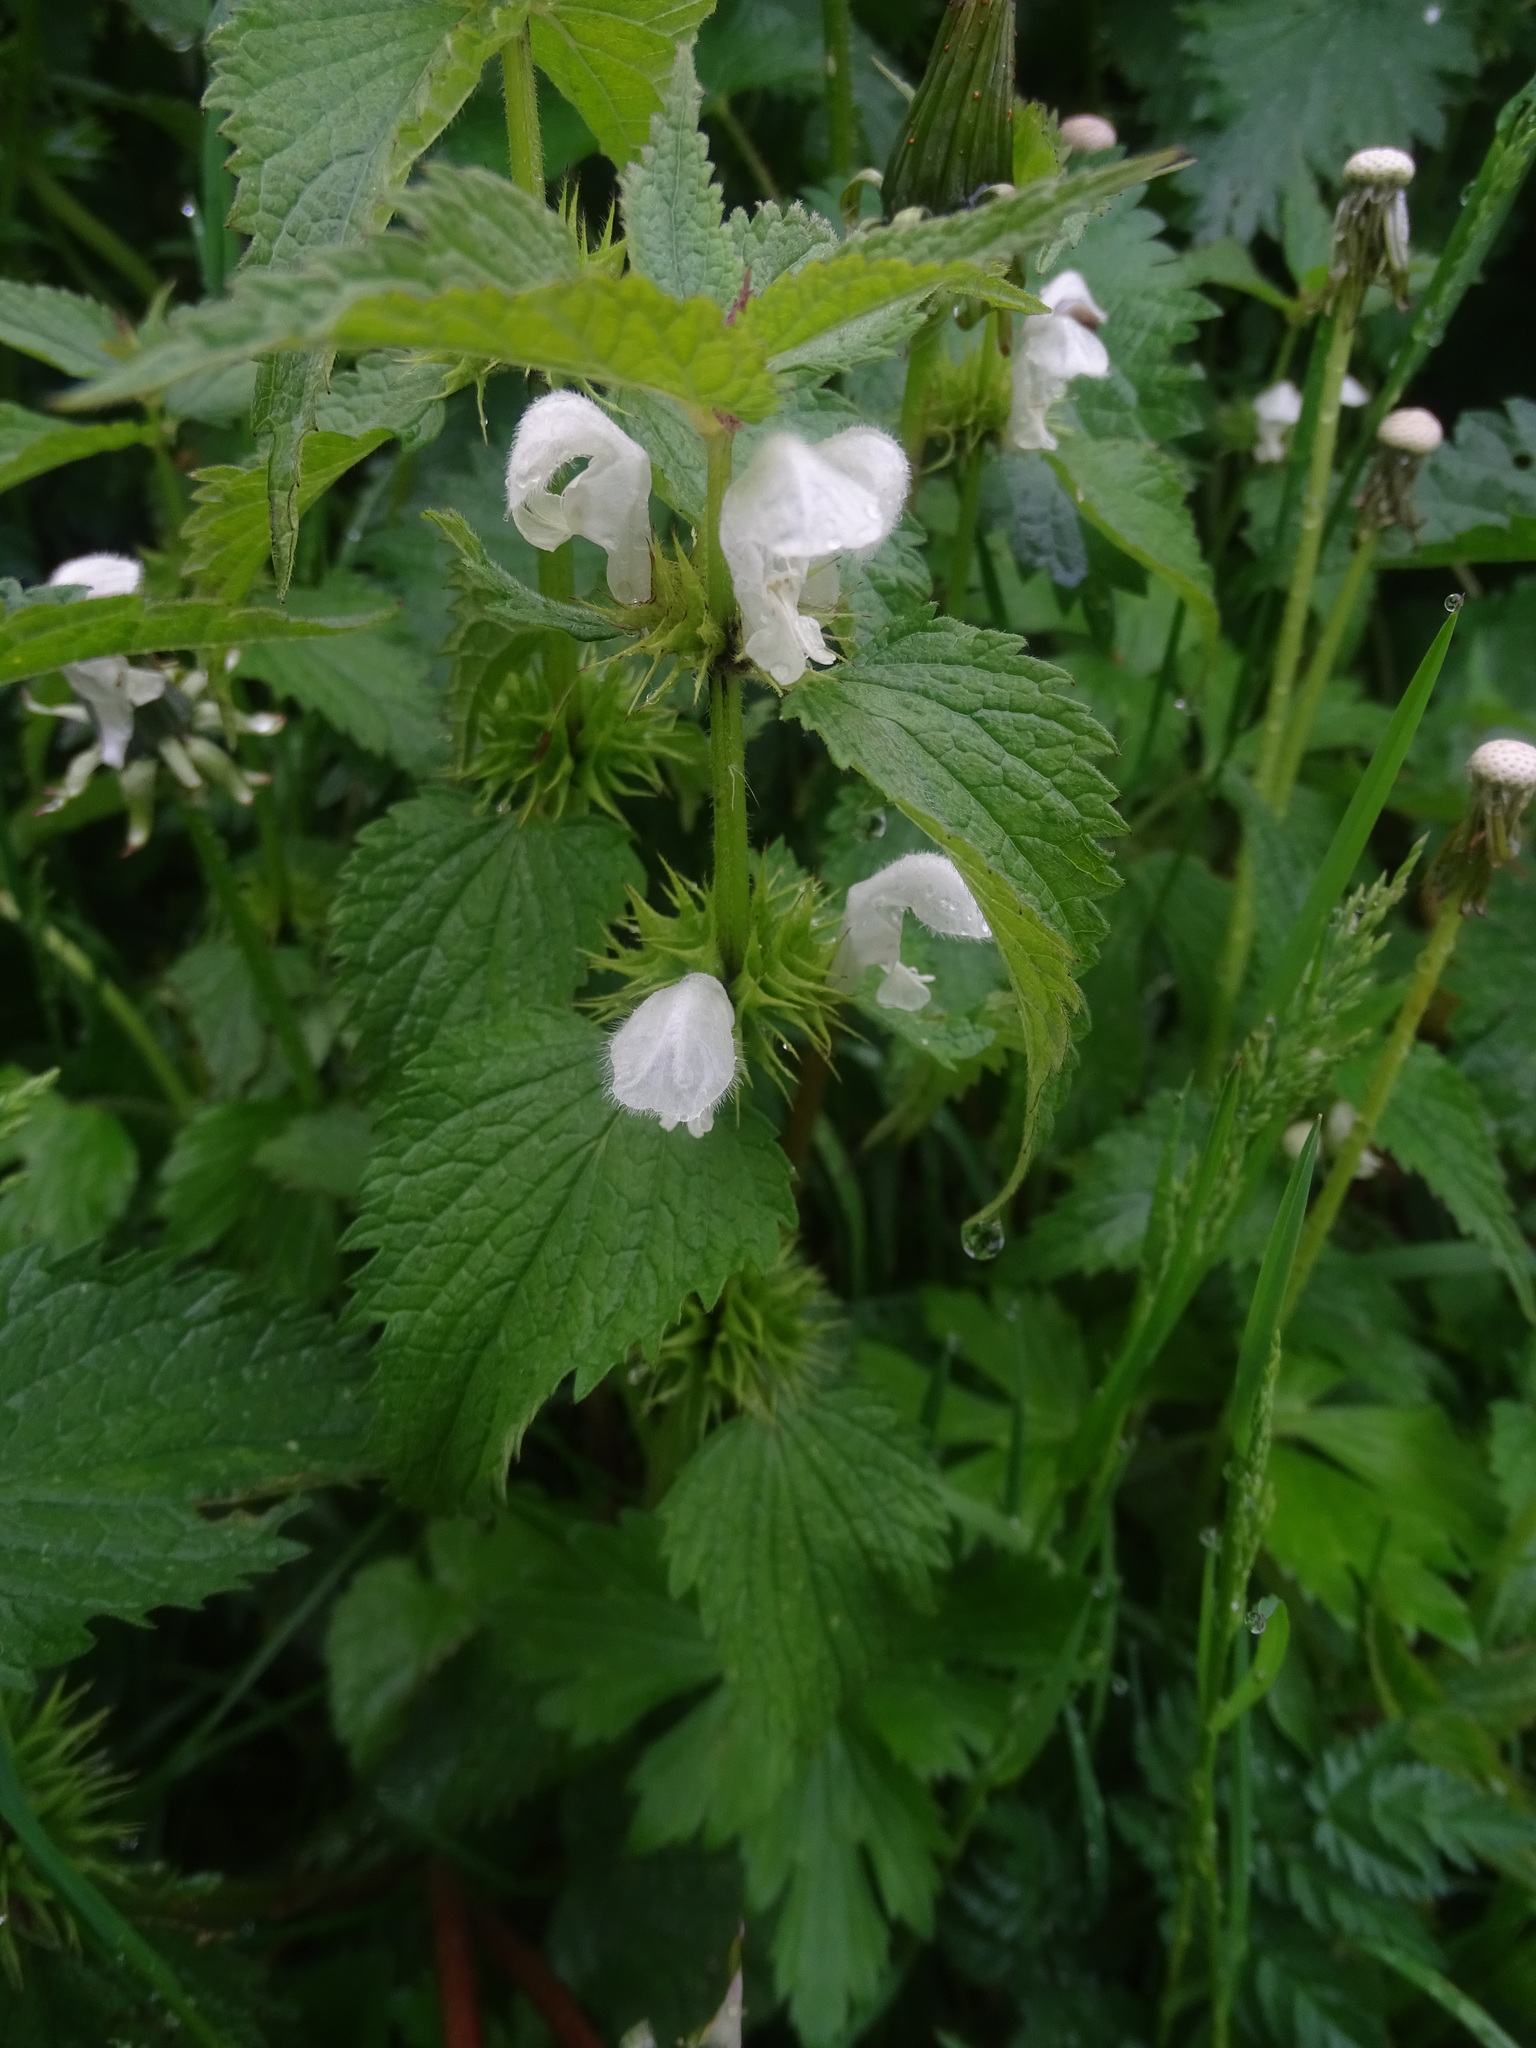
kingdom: Plantae
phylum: Tracheophyta
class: Magnoliopsida
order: Lamiales
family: Lamiaceae
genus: Lamium
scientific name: Lamium album
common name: White dead-nettle
